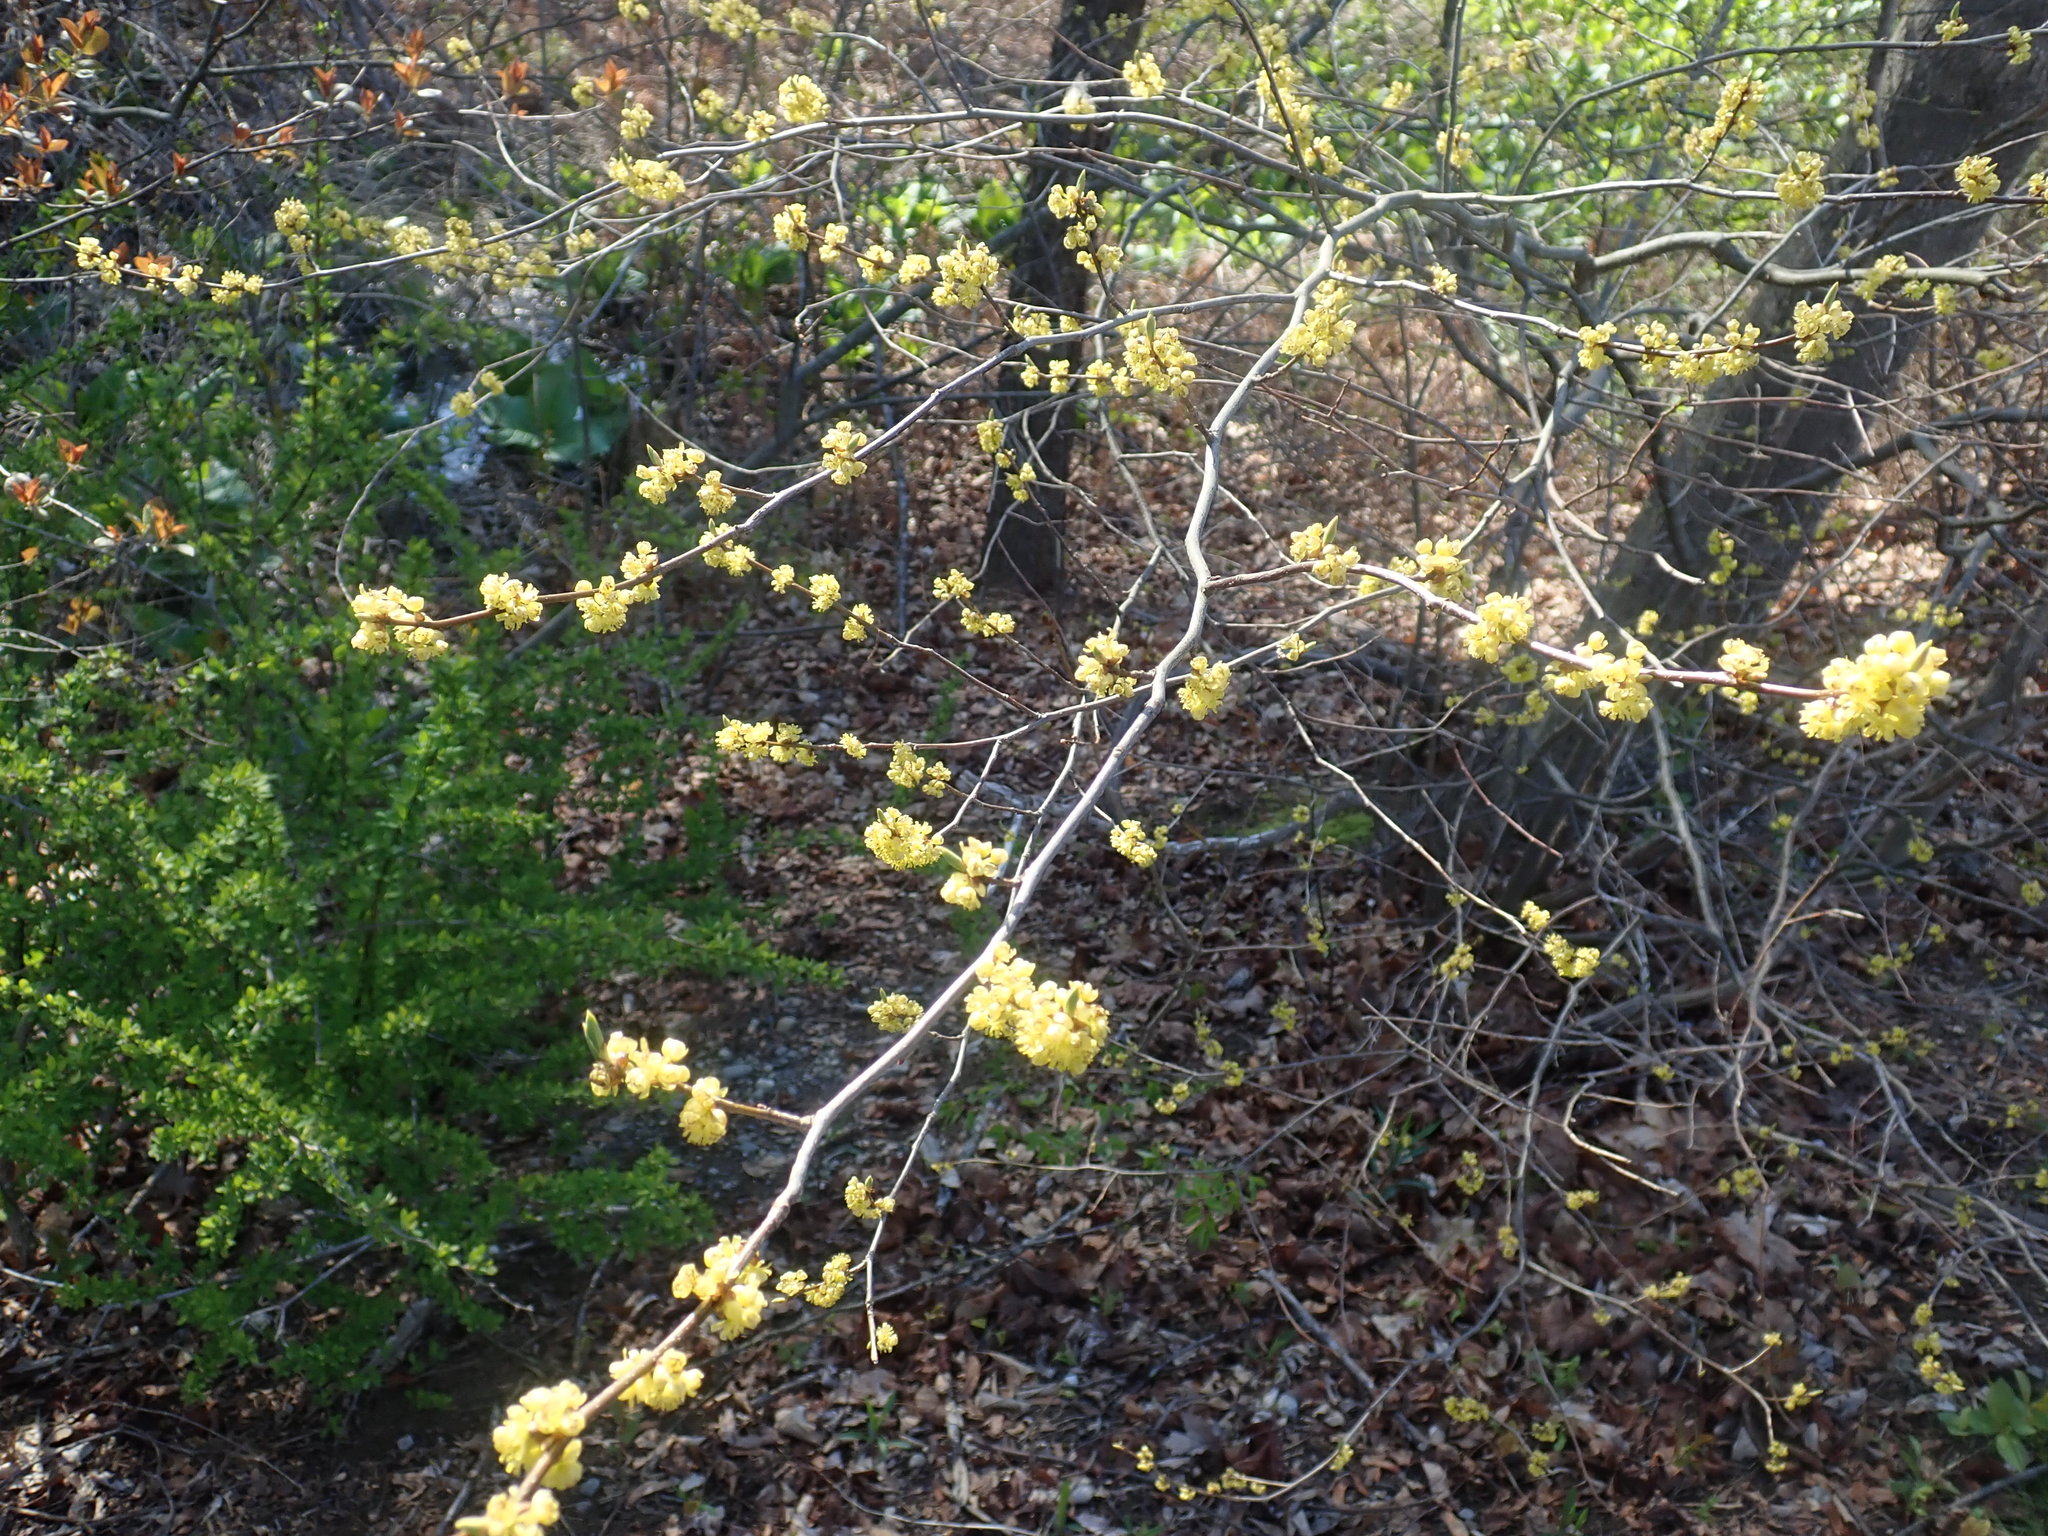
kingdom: Plantae
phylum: Tracheophyta
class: Magnoliopsida
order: Laurales
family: Lauraceae
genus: Lindera
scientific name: Lindera benzoin
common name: Spicebush
